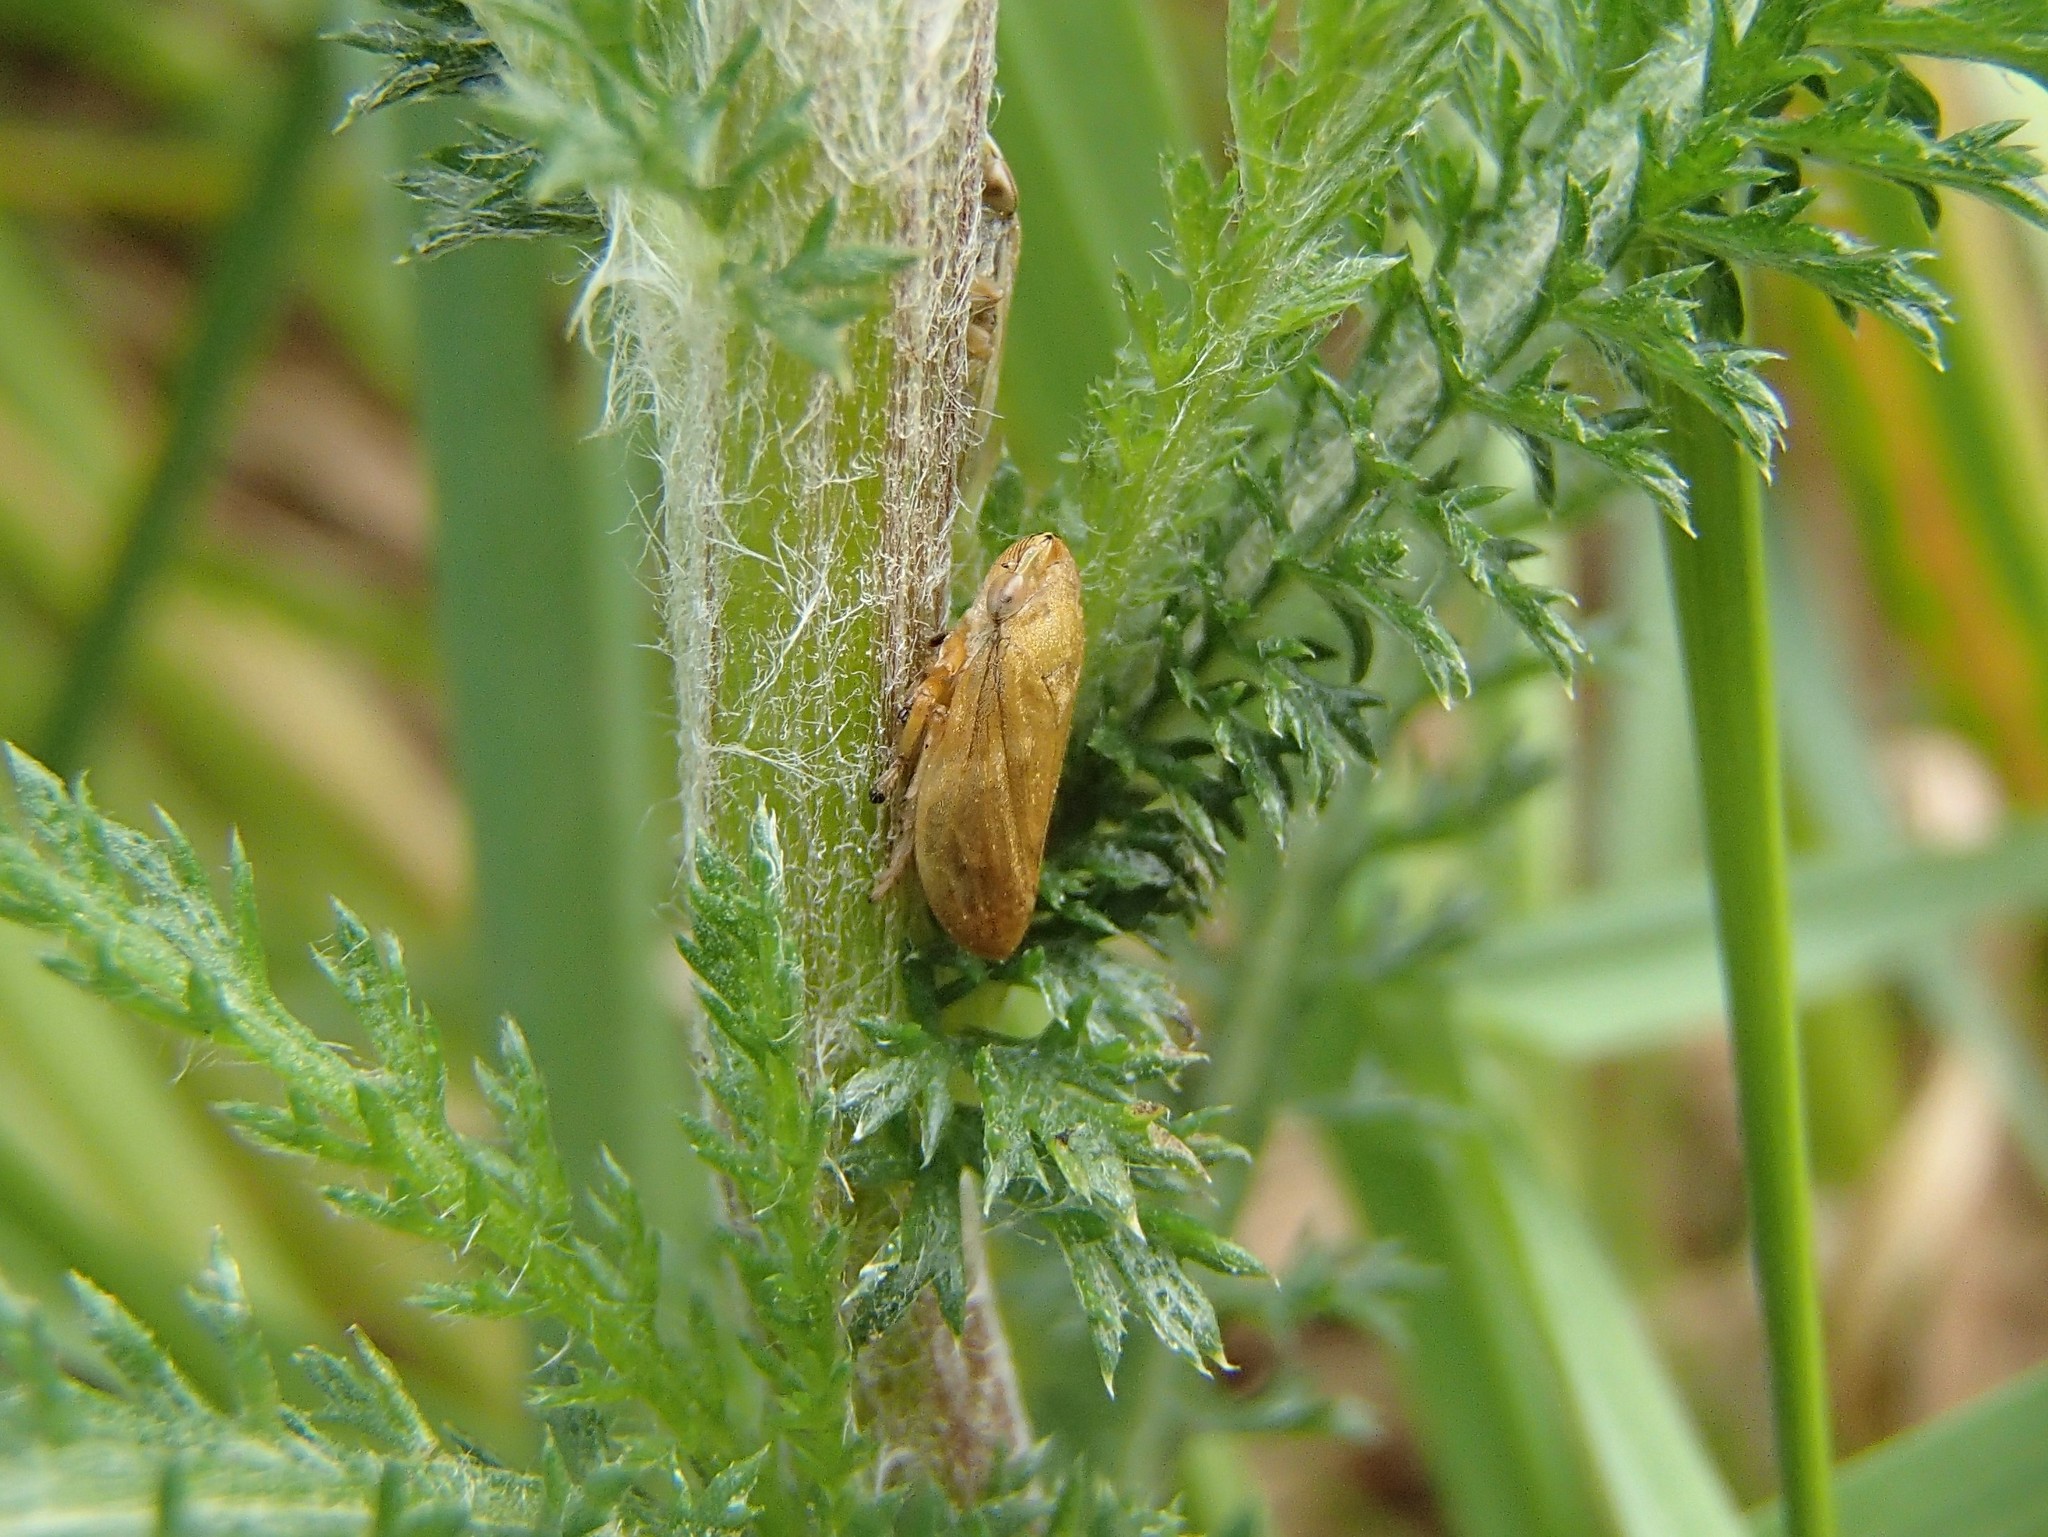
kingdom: Animalia
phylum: Arthropoda
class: Insecta
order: Hemiptera
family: Aphrophoridae
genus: Philaenus
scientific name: Philaenus spumarius
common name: Meadow spittlebug
